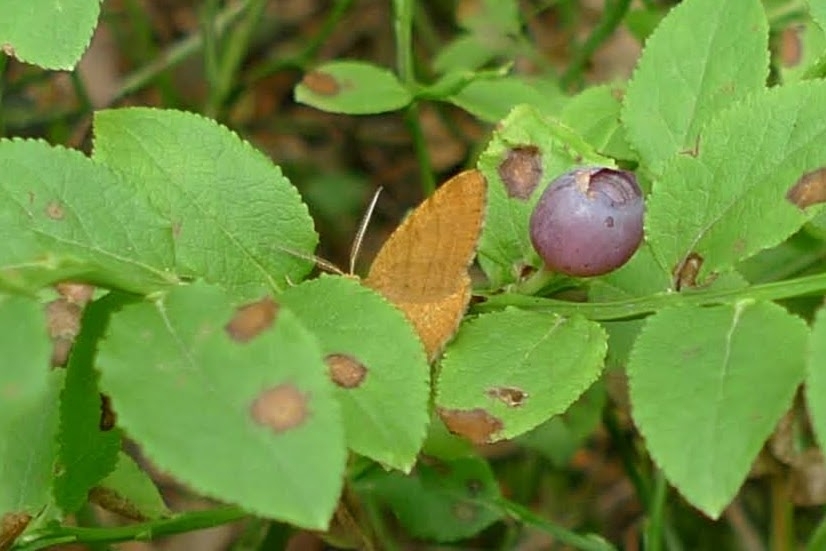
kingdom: Animalia
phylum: Arthropoda
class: Insecta
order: Lepidoptera
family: Geometridae
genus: Macaria
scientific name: Macaria brunneata
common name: Rannoch looper
